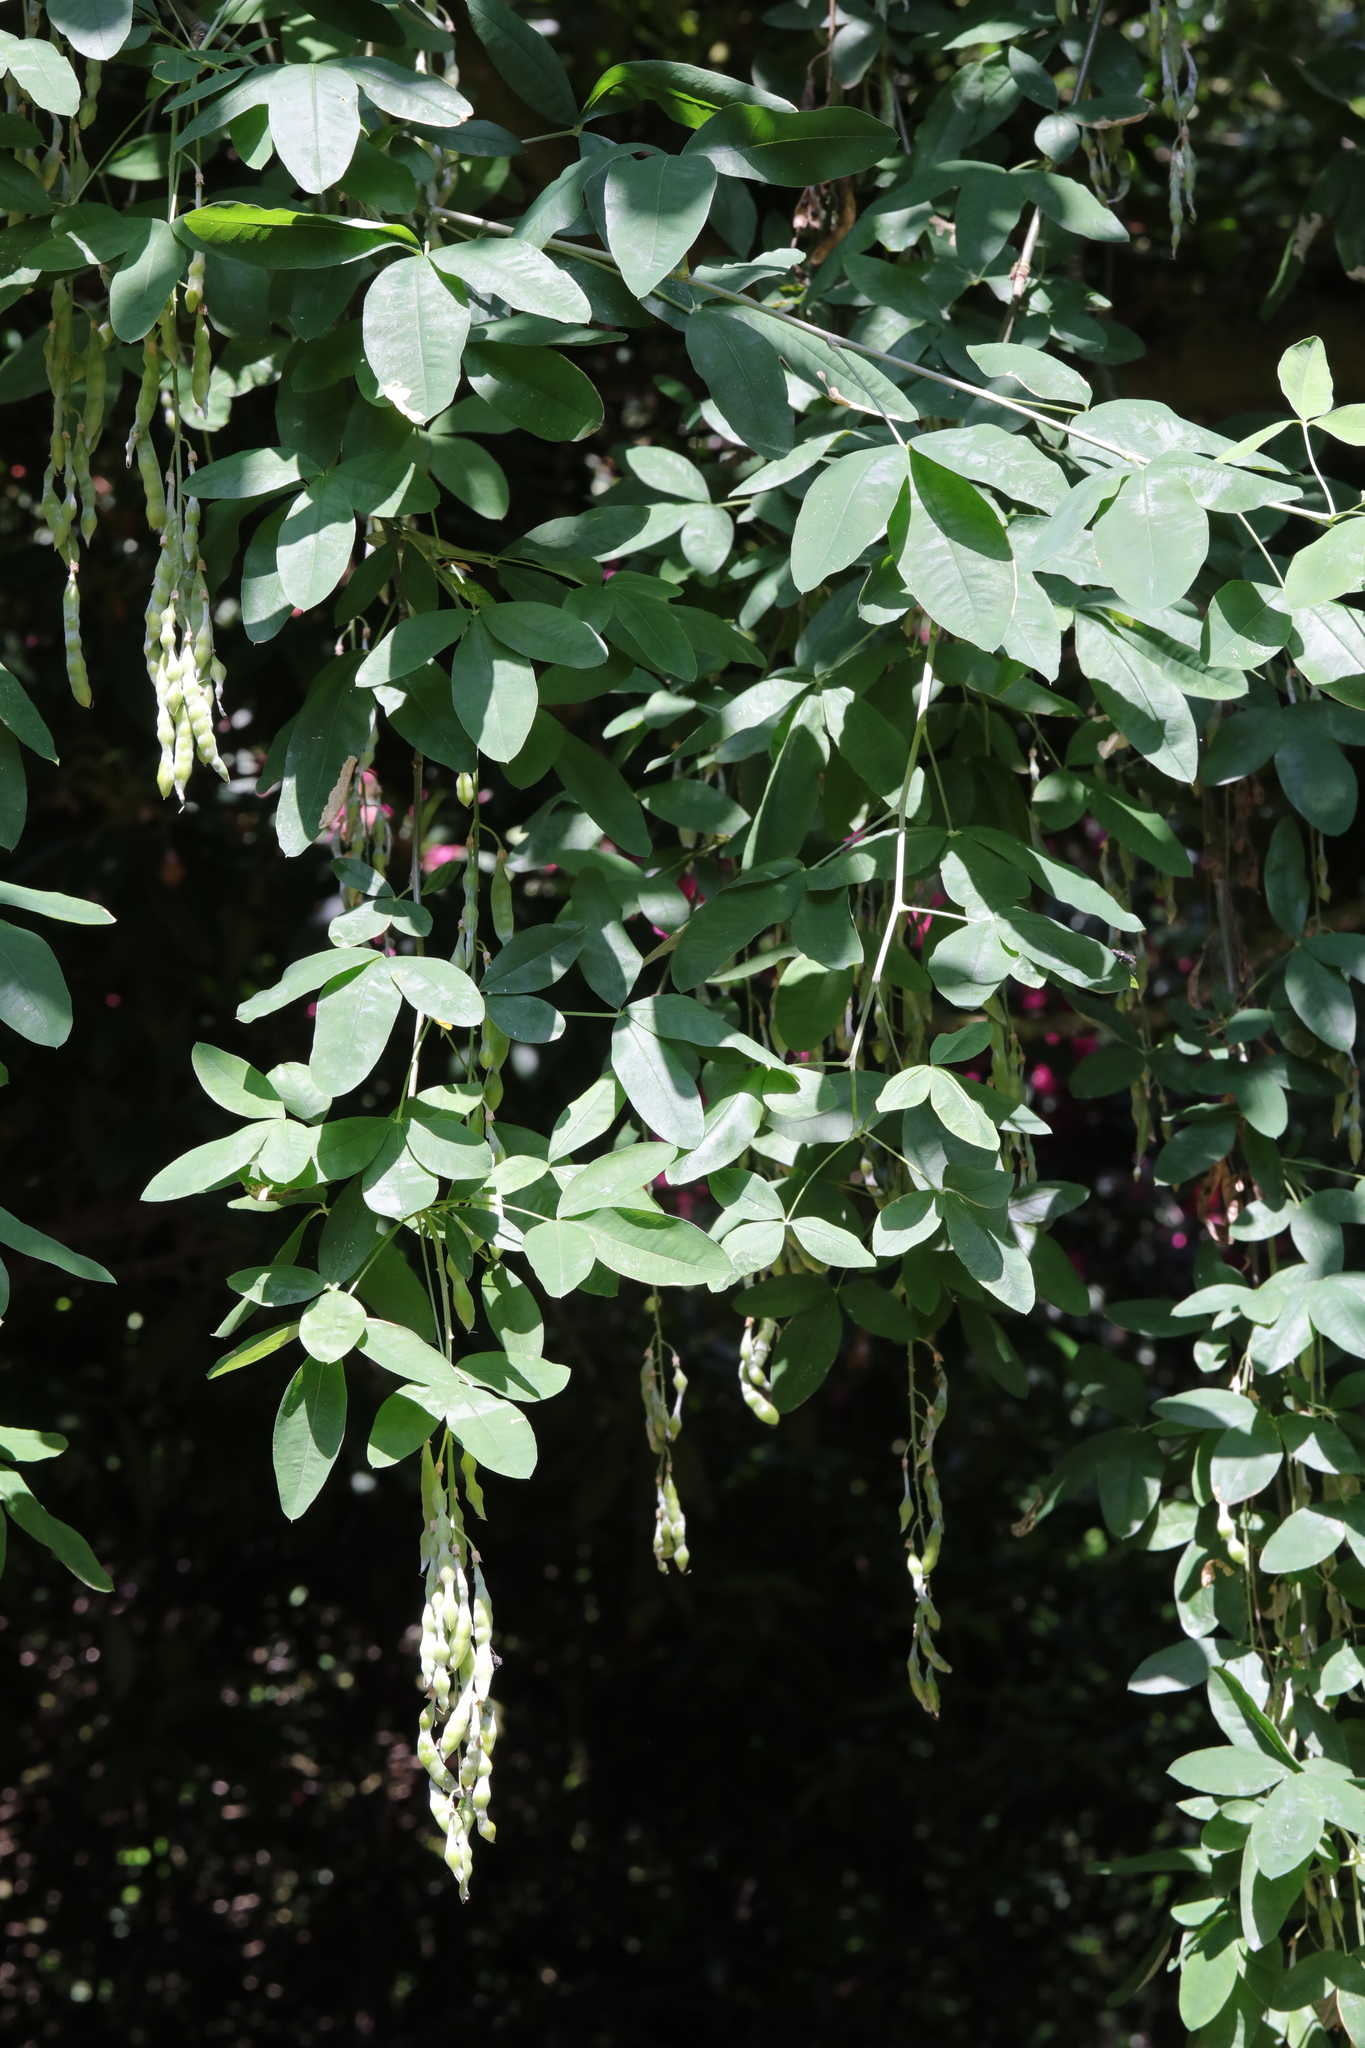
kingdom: Plantae
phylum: Tracheophyta
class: Magnoliopsida
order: Fabales
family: Fabaceae
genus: Laburnum
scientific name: Laburnum anagyroides
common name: Laburnum
